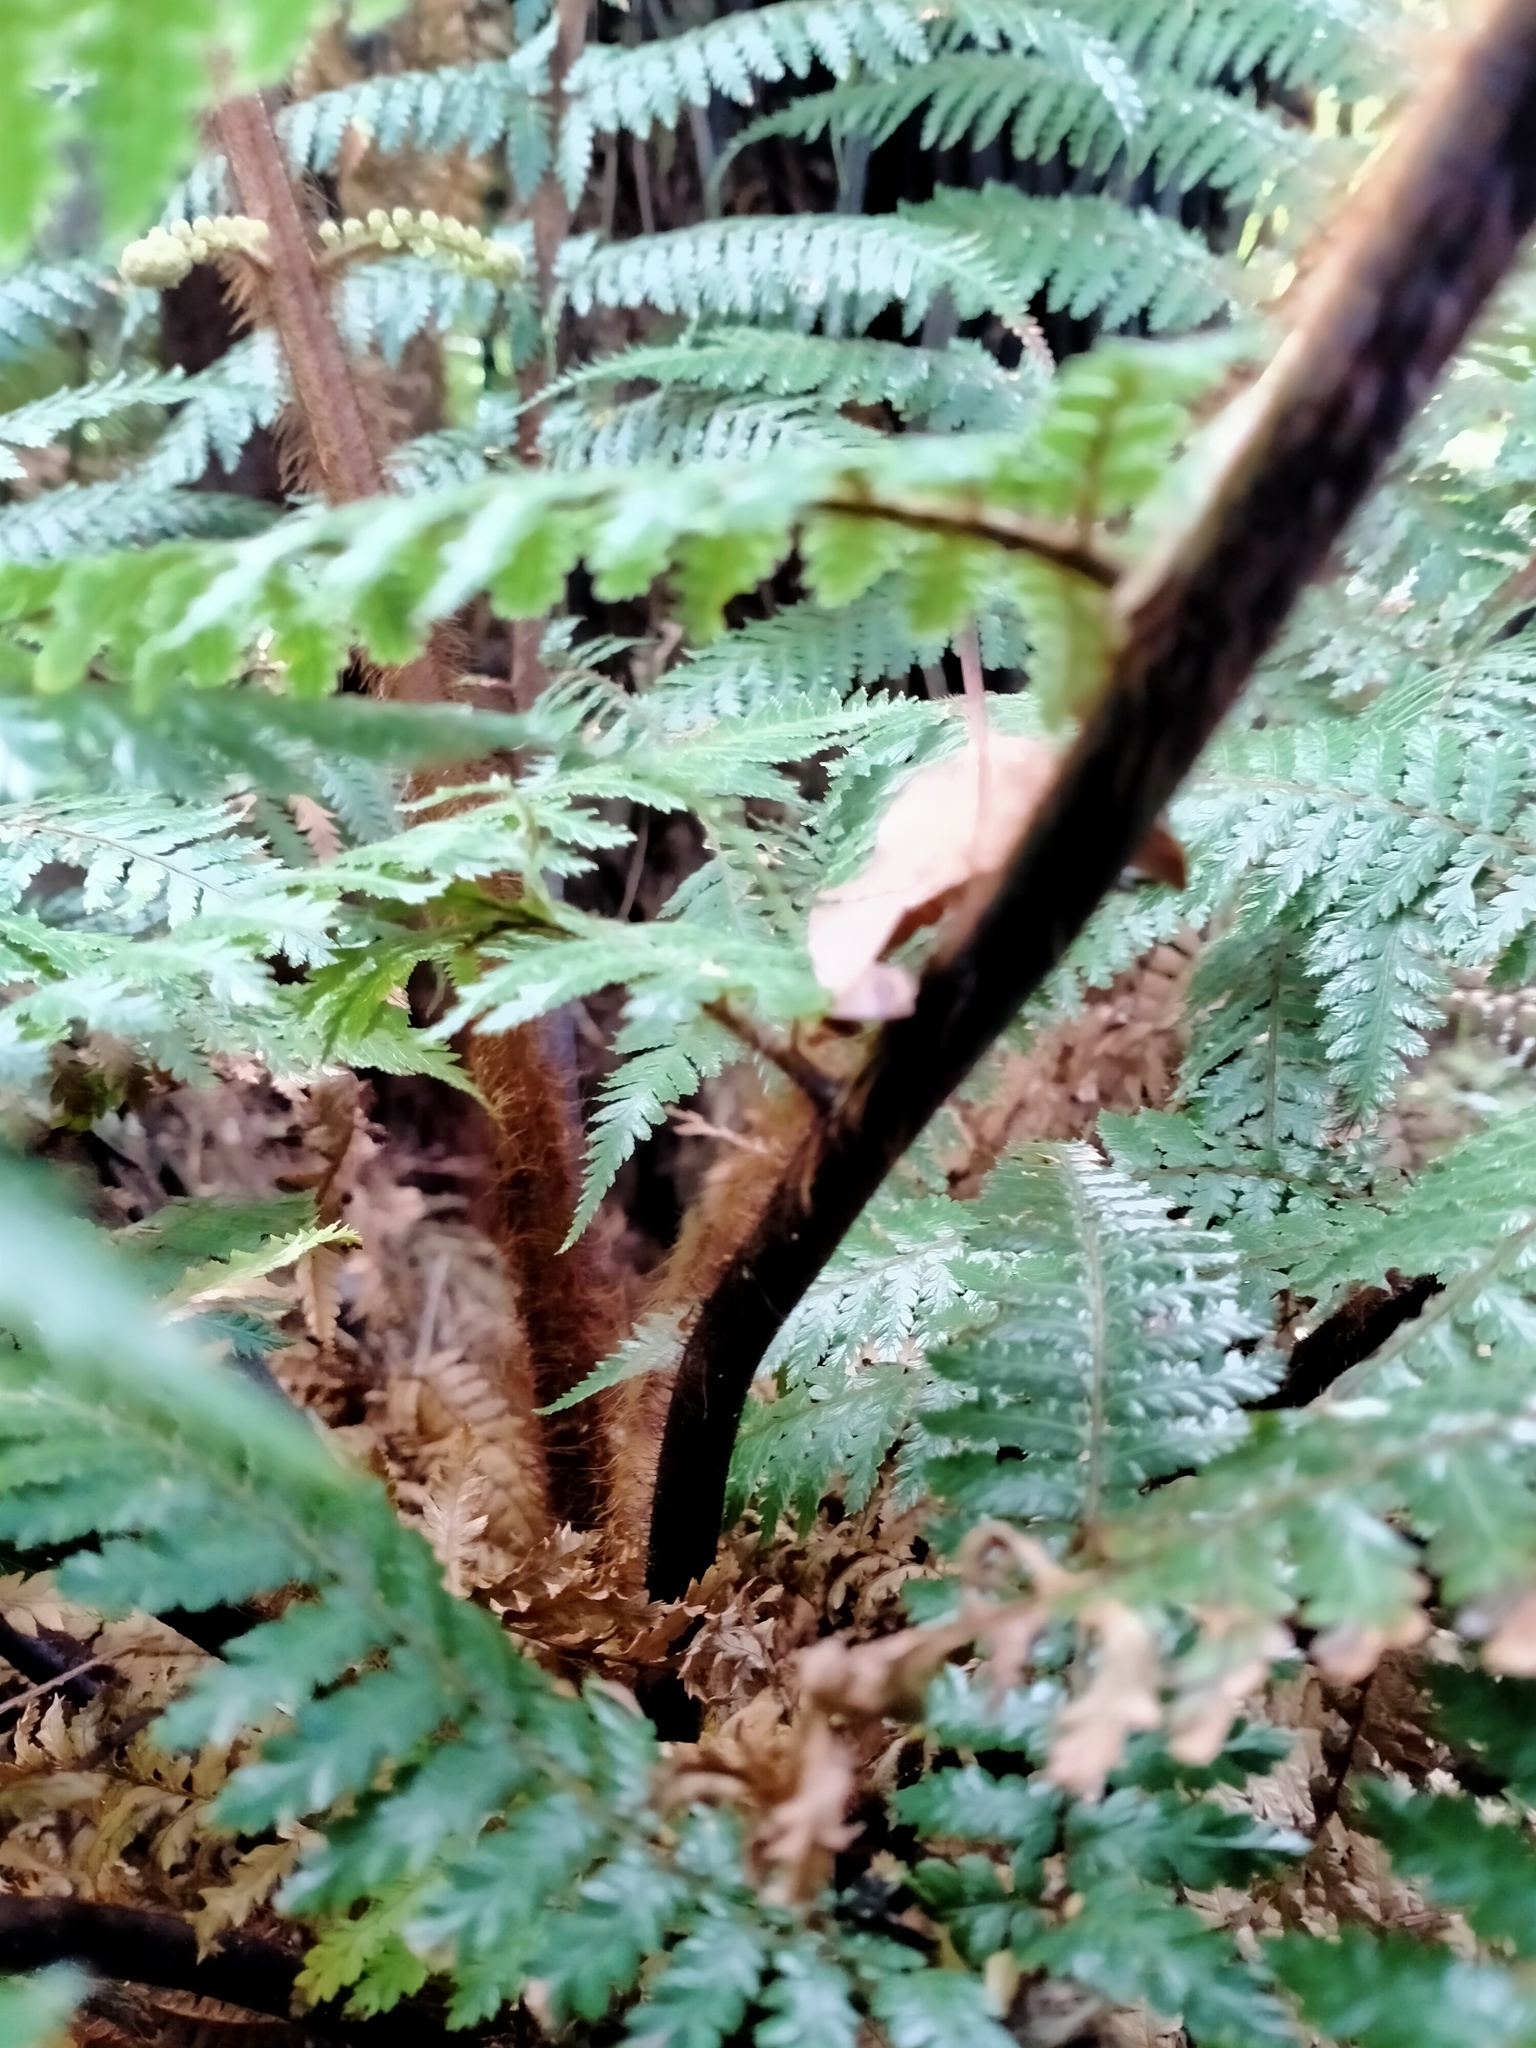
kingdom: Plantae
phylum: Tracheophyta
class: Polypodiopsida
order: Cyatheales
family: Dicksoniaceae
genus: Dicksonia
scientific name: Dicksonia squarrosa
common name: Hard treefern
